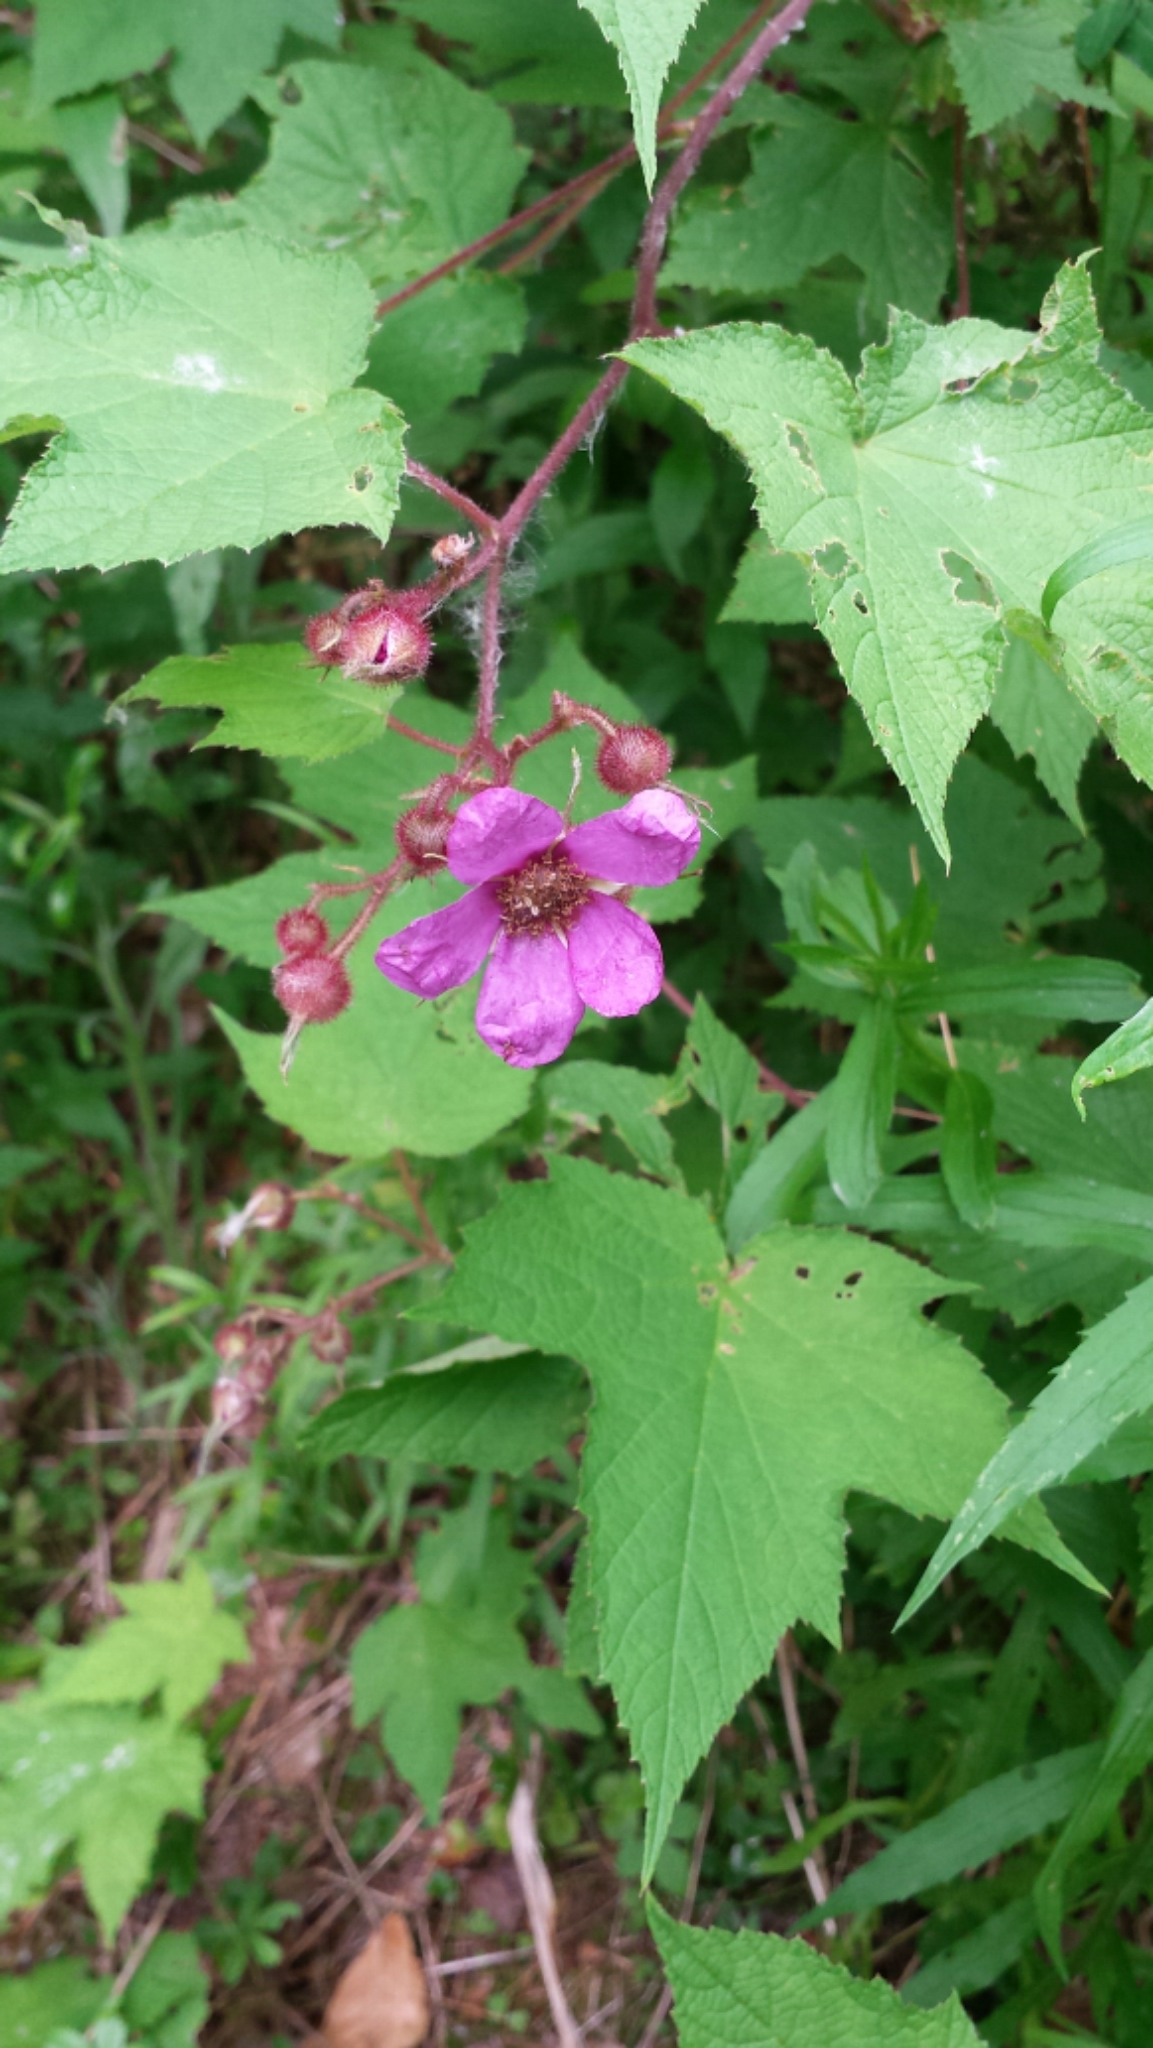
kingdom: Plantae
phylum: Tracheophyta
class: Magnoliopsida
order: Rosales
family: Rosaceae
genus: Rubus
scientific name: Rubus odoratus
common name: Purple-flowered raspberry
